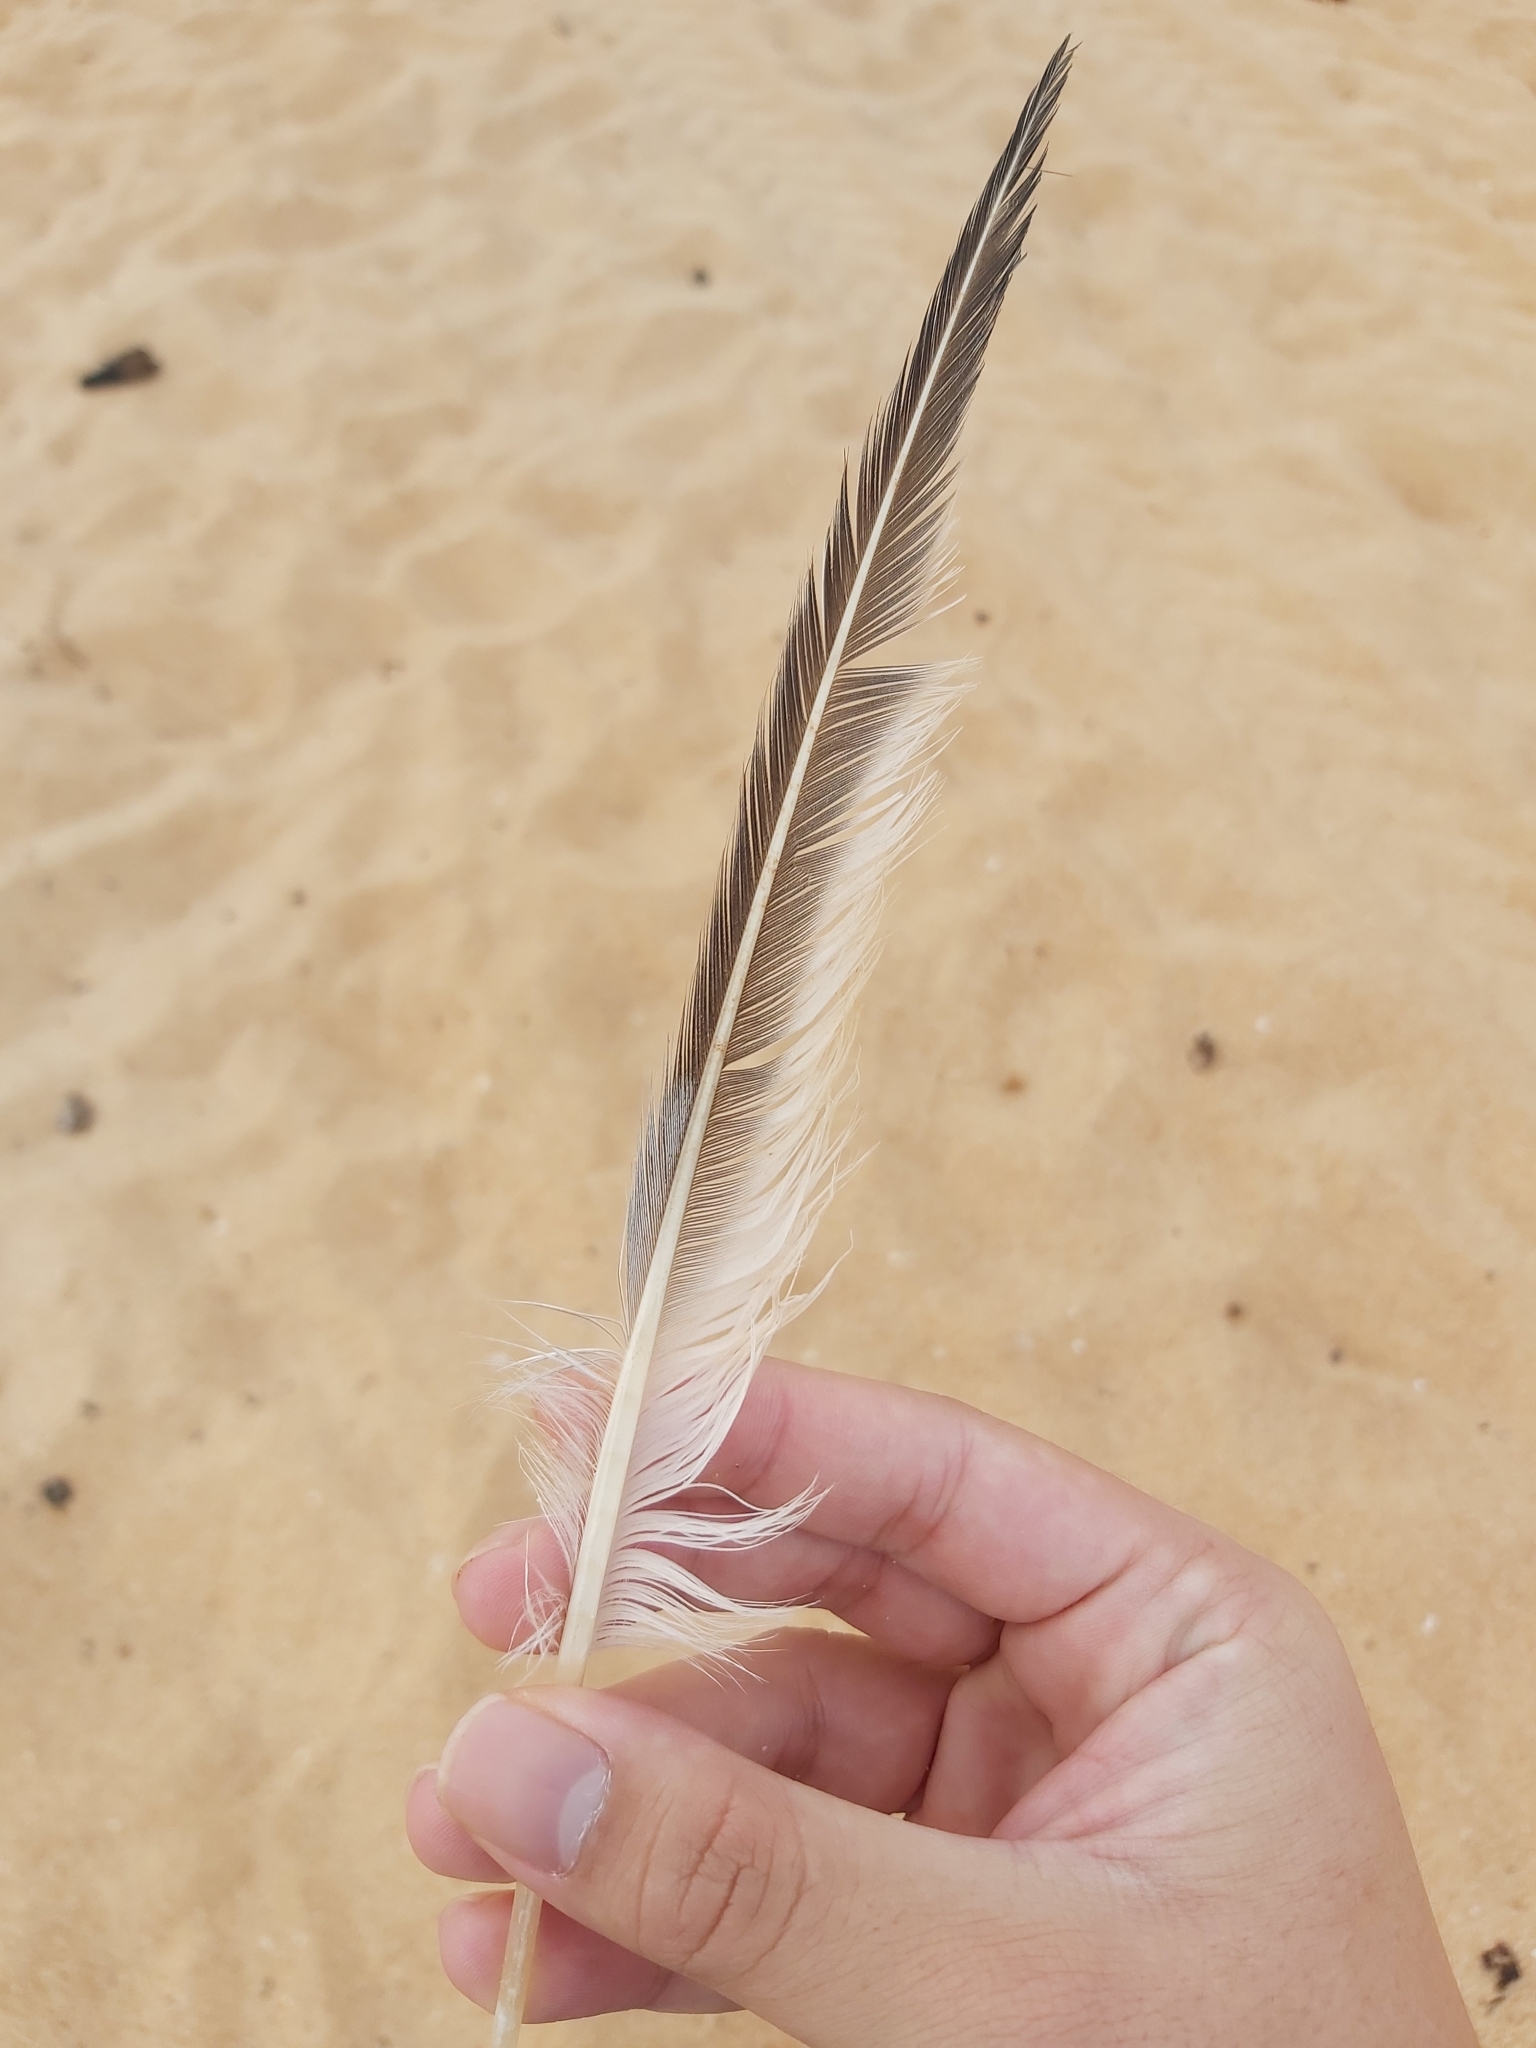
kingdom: Animalia
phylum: Chordata
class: Aves
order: Charadriiformes
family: Laridae
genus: Thalasseus
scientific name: Thalasseus bergii
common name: Greater crested tern
